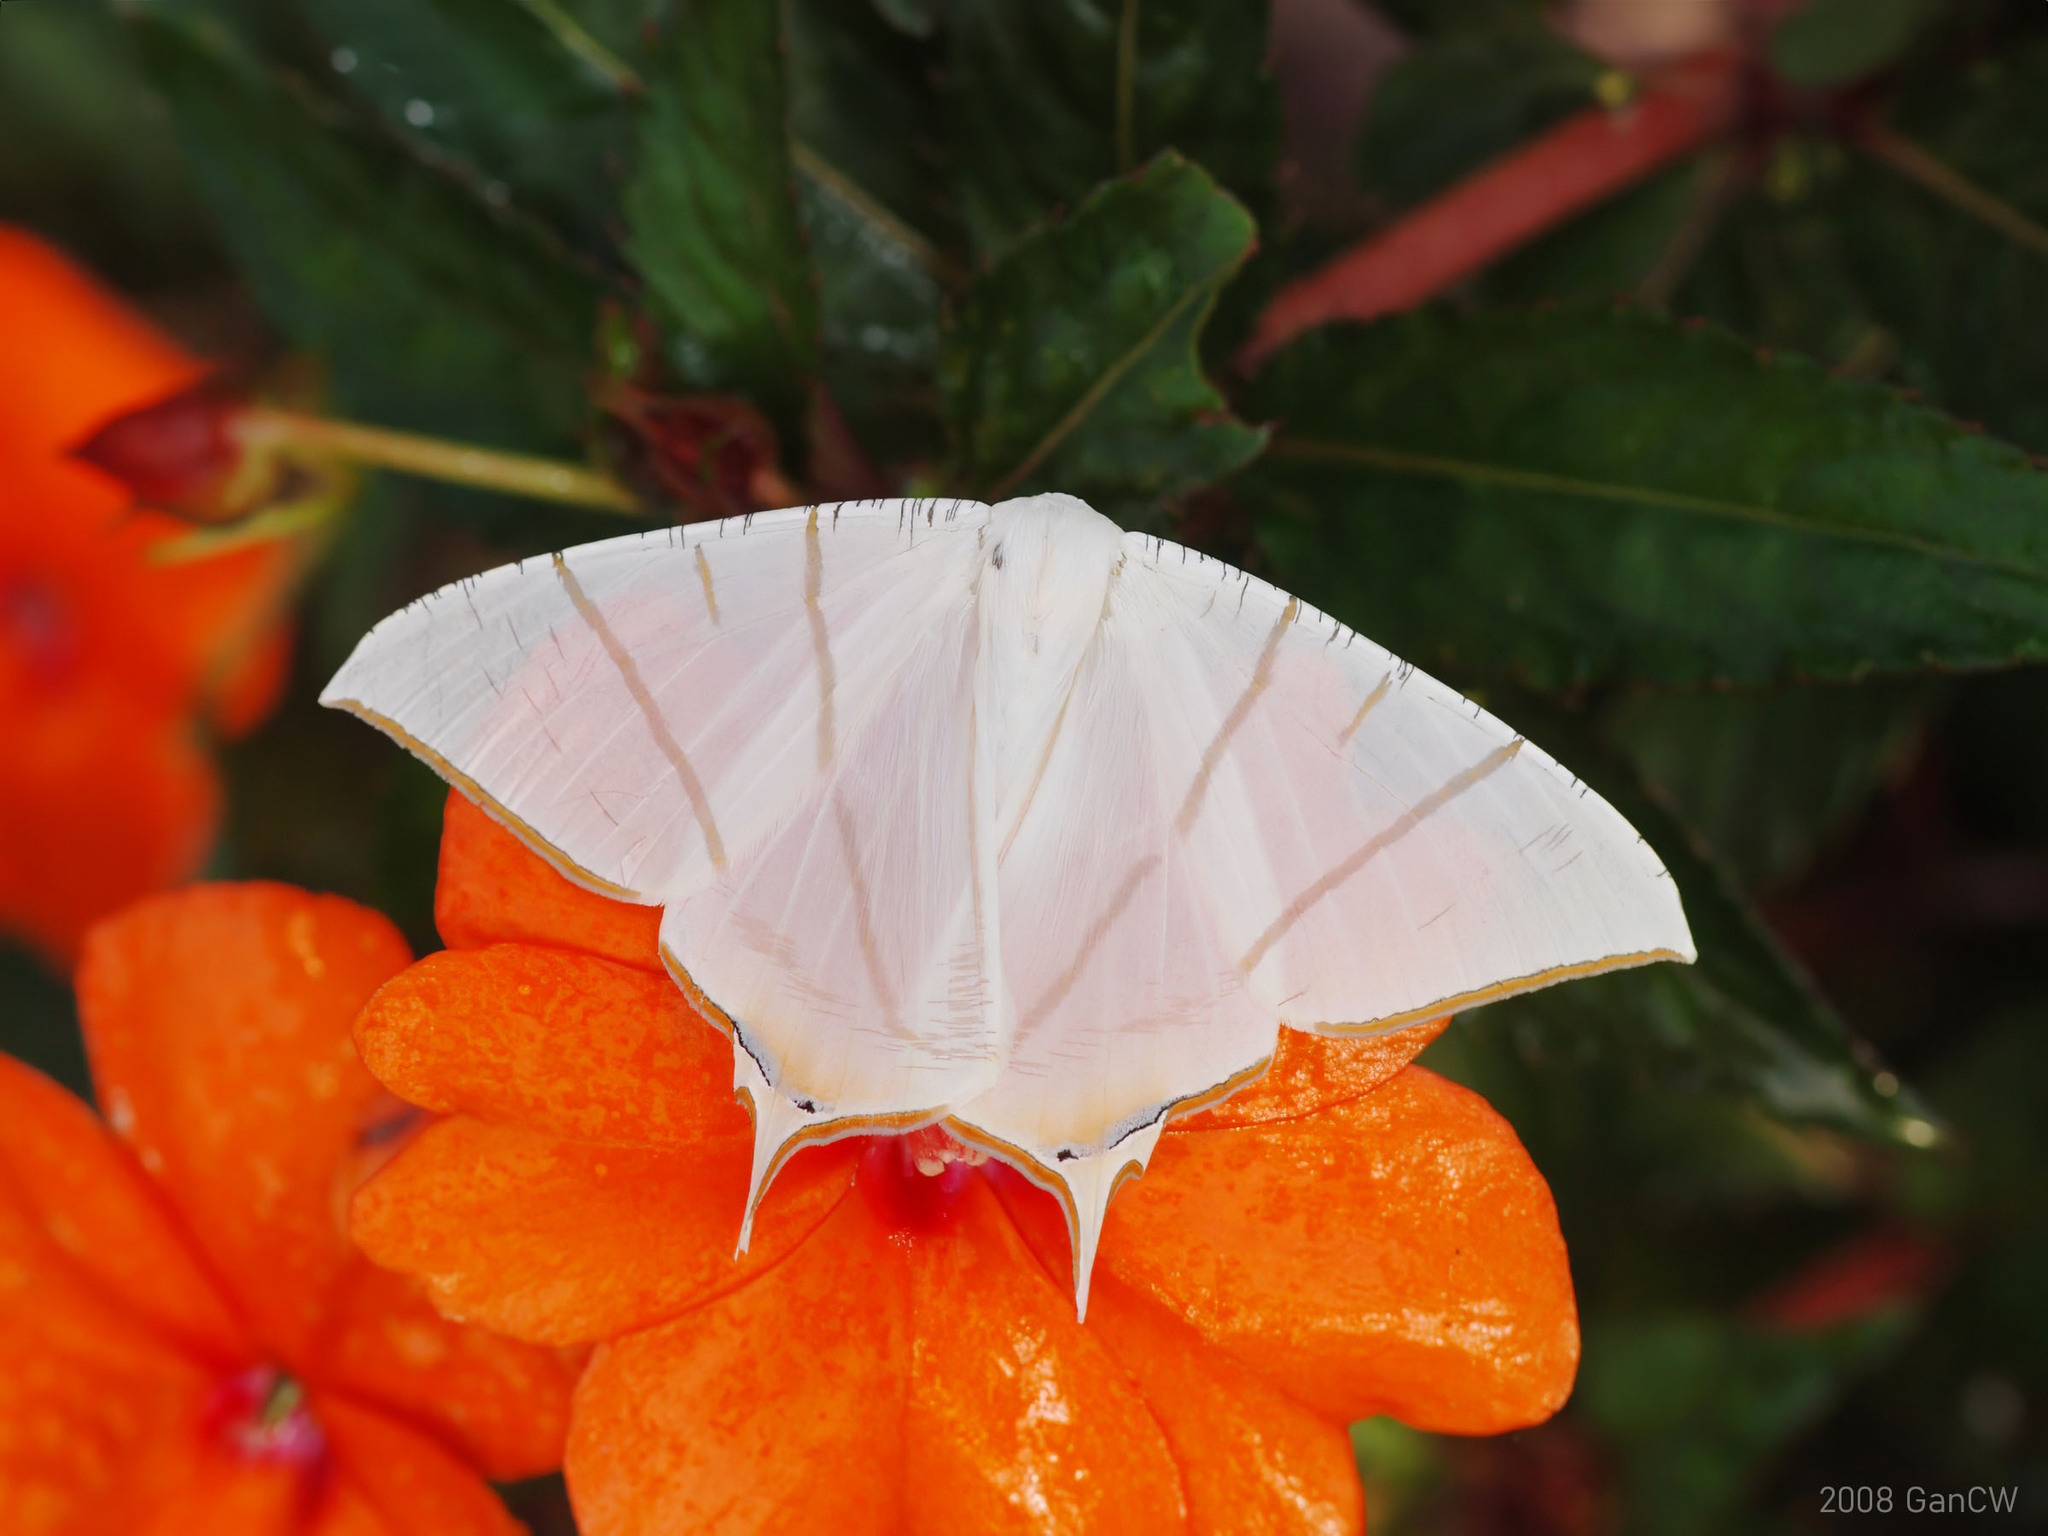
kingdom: Animalia
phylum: Arthropoda
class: Insecta
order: Lepidoptera
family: Geometridae
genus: Ourapteryx
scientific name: Ourapteryx claretta
